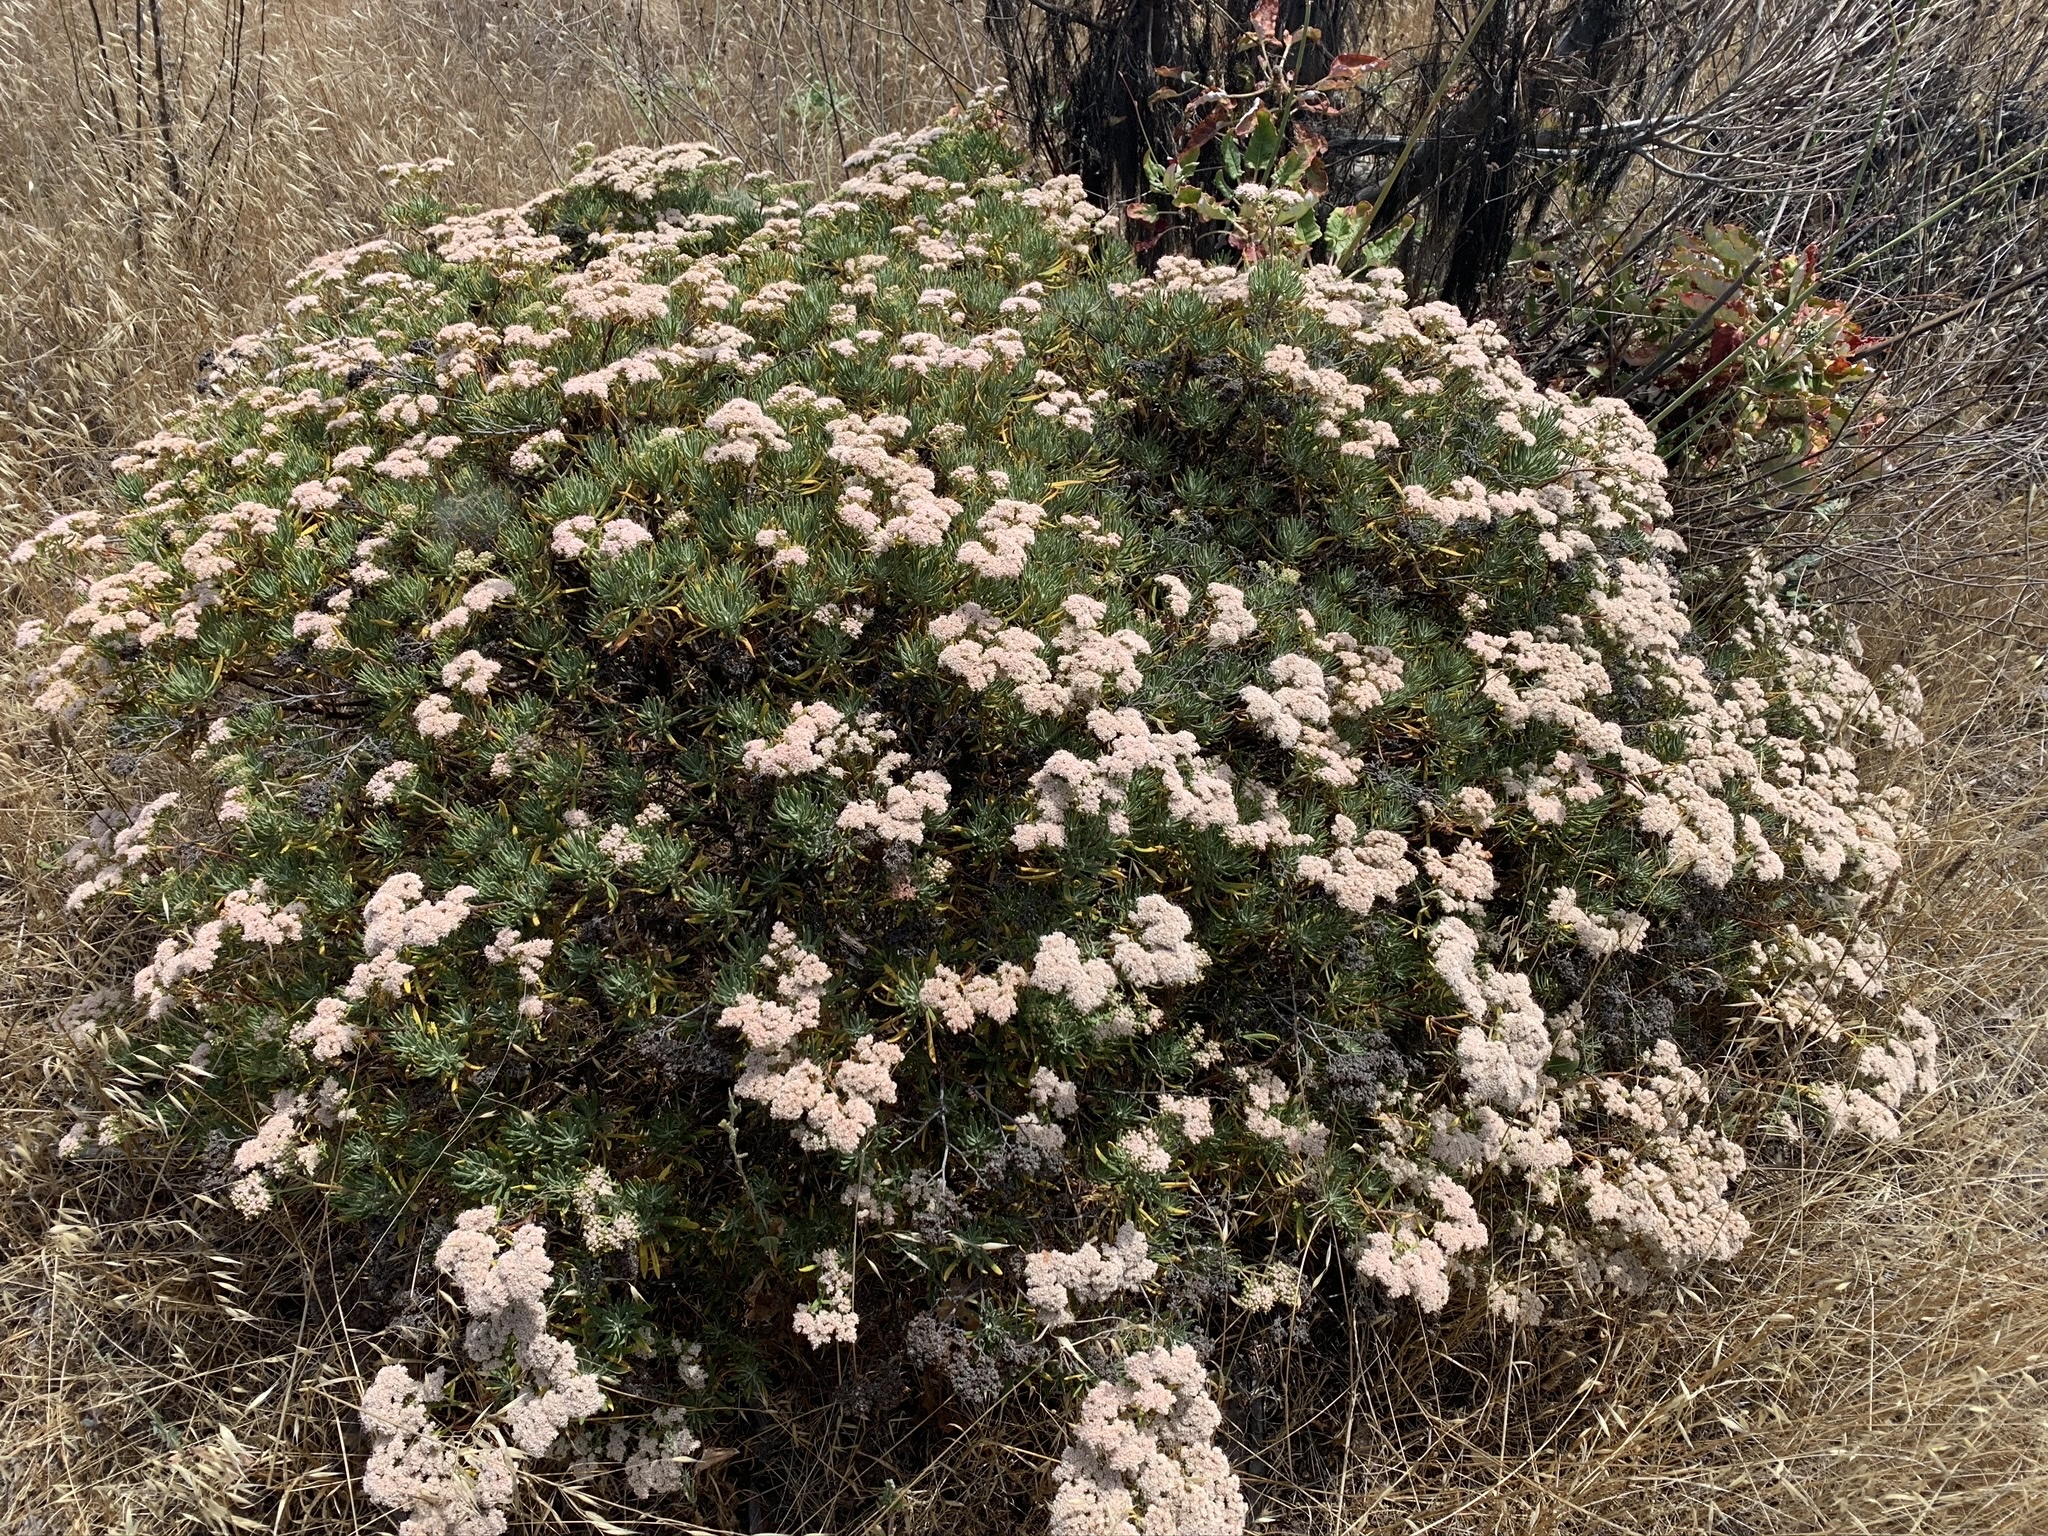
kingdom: Plantae
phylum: Tracheophyta
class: Magnoliopsida
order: Caryophyllales
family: Polygonaceae
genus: Eriogonum
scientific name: Eriogonum arborescens
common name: Island buckwheat
